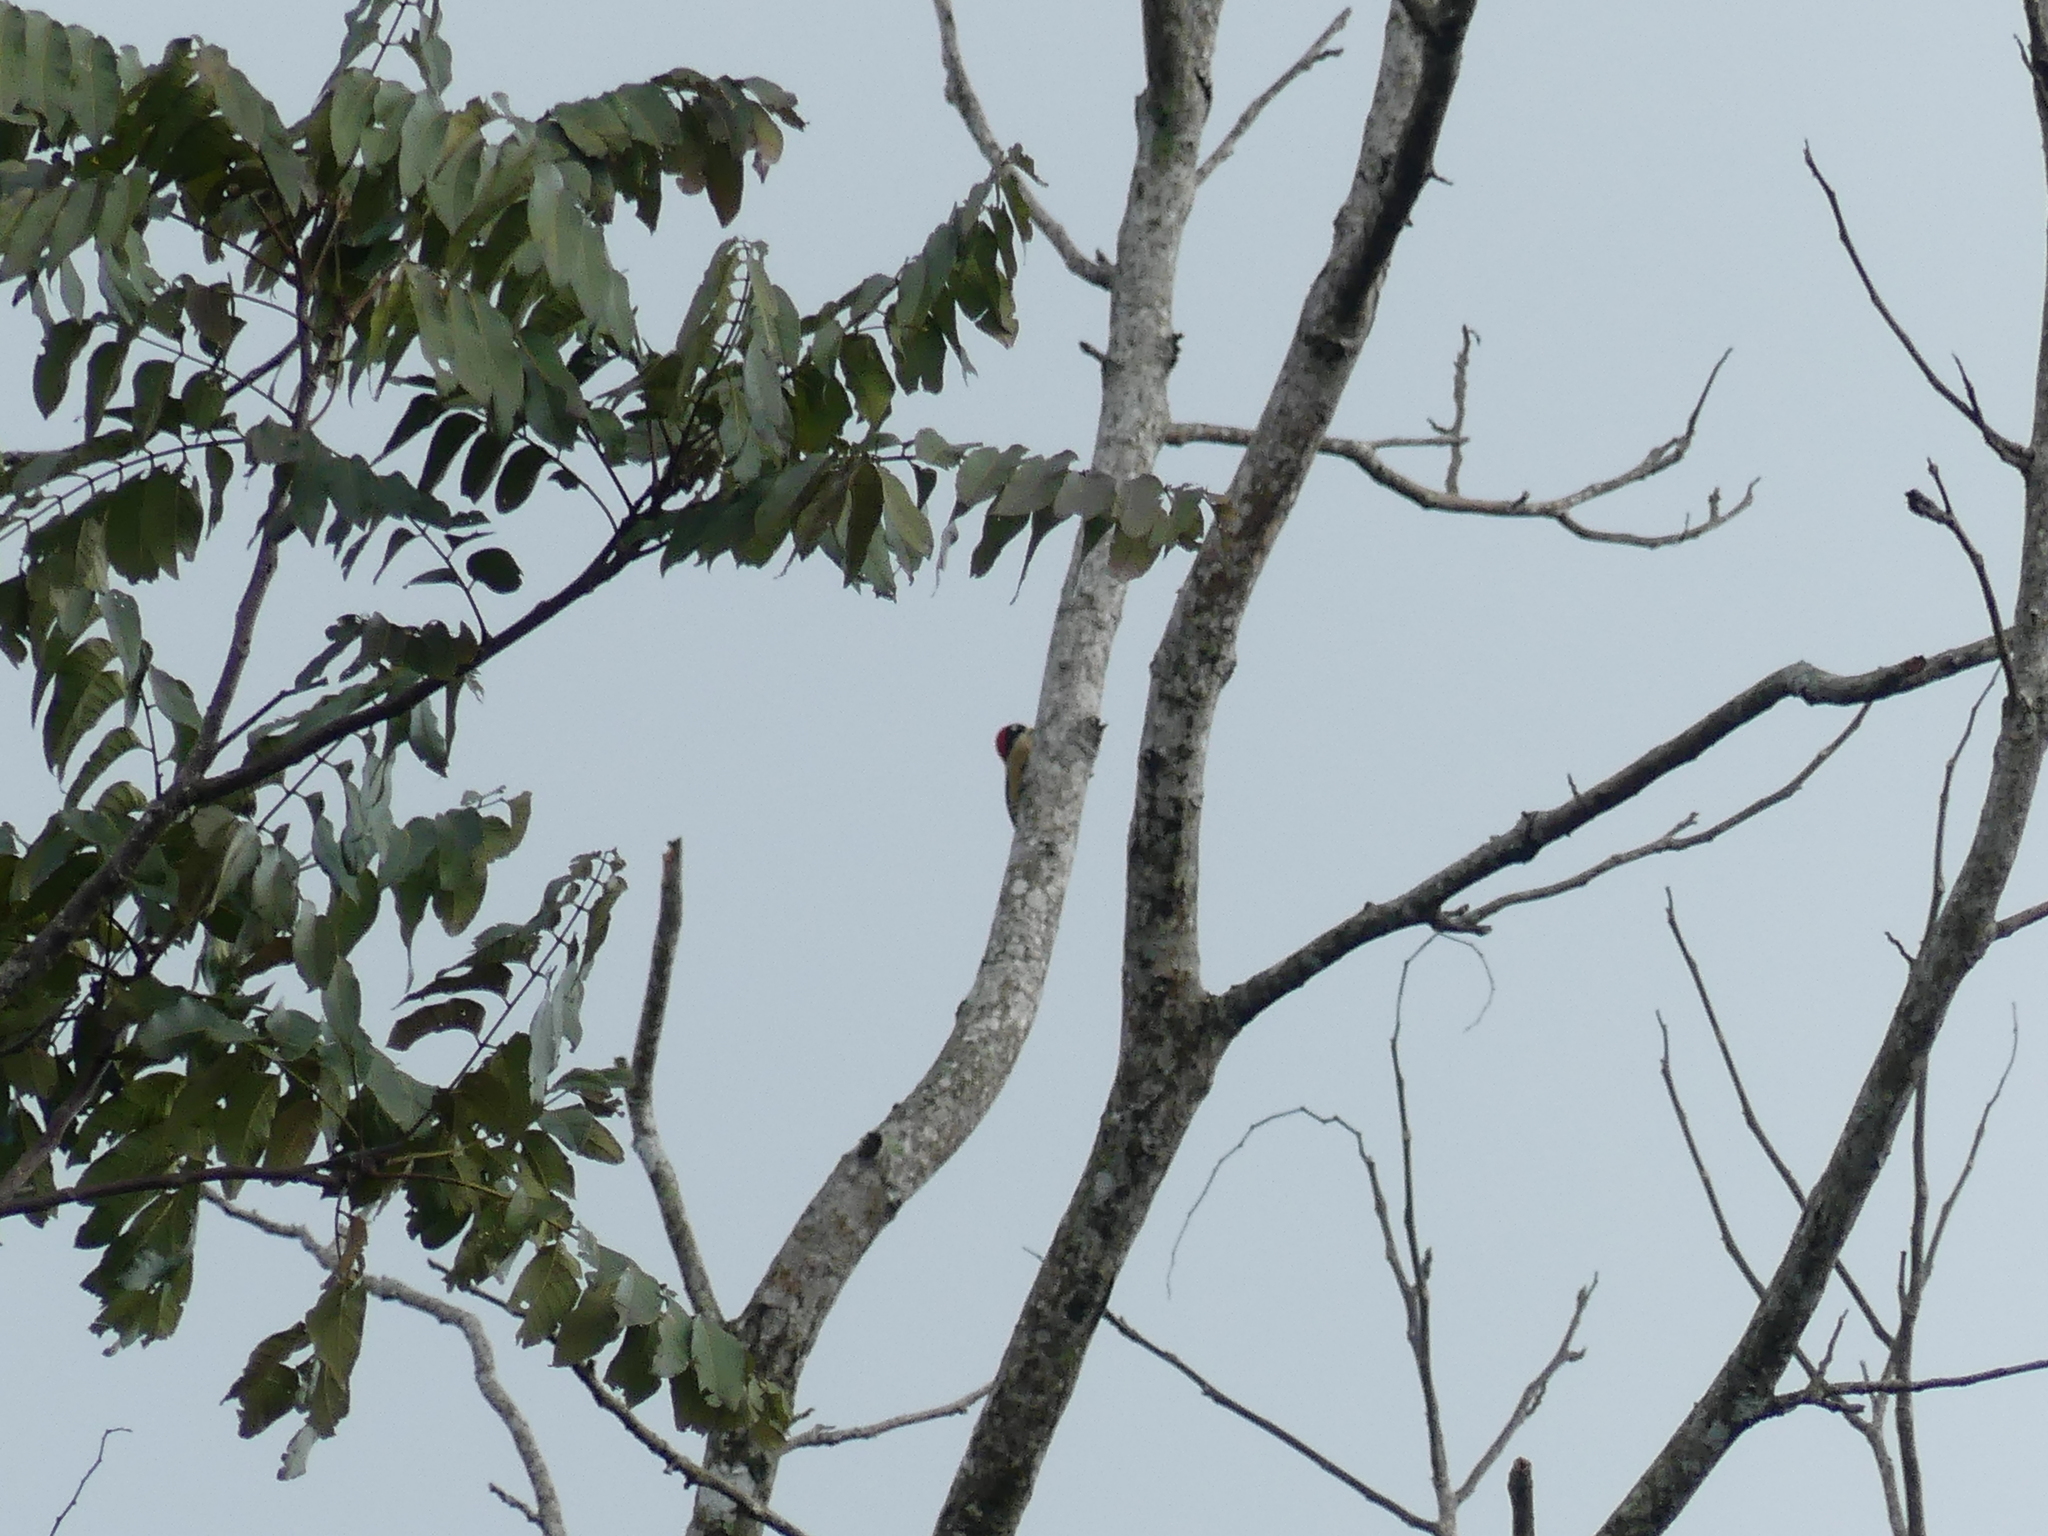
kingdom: Animalia
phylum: Chordata
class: Aves
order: Piciformes
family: Picidae
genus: Melanerpes
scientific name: Melanerpes pucherani
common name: Black-cheeked woodpecker
